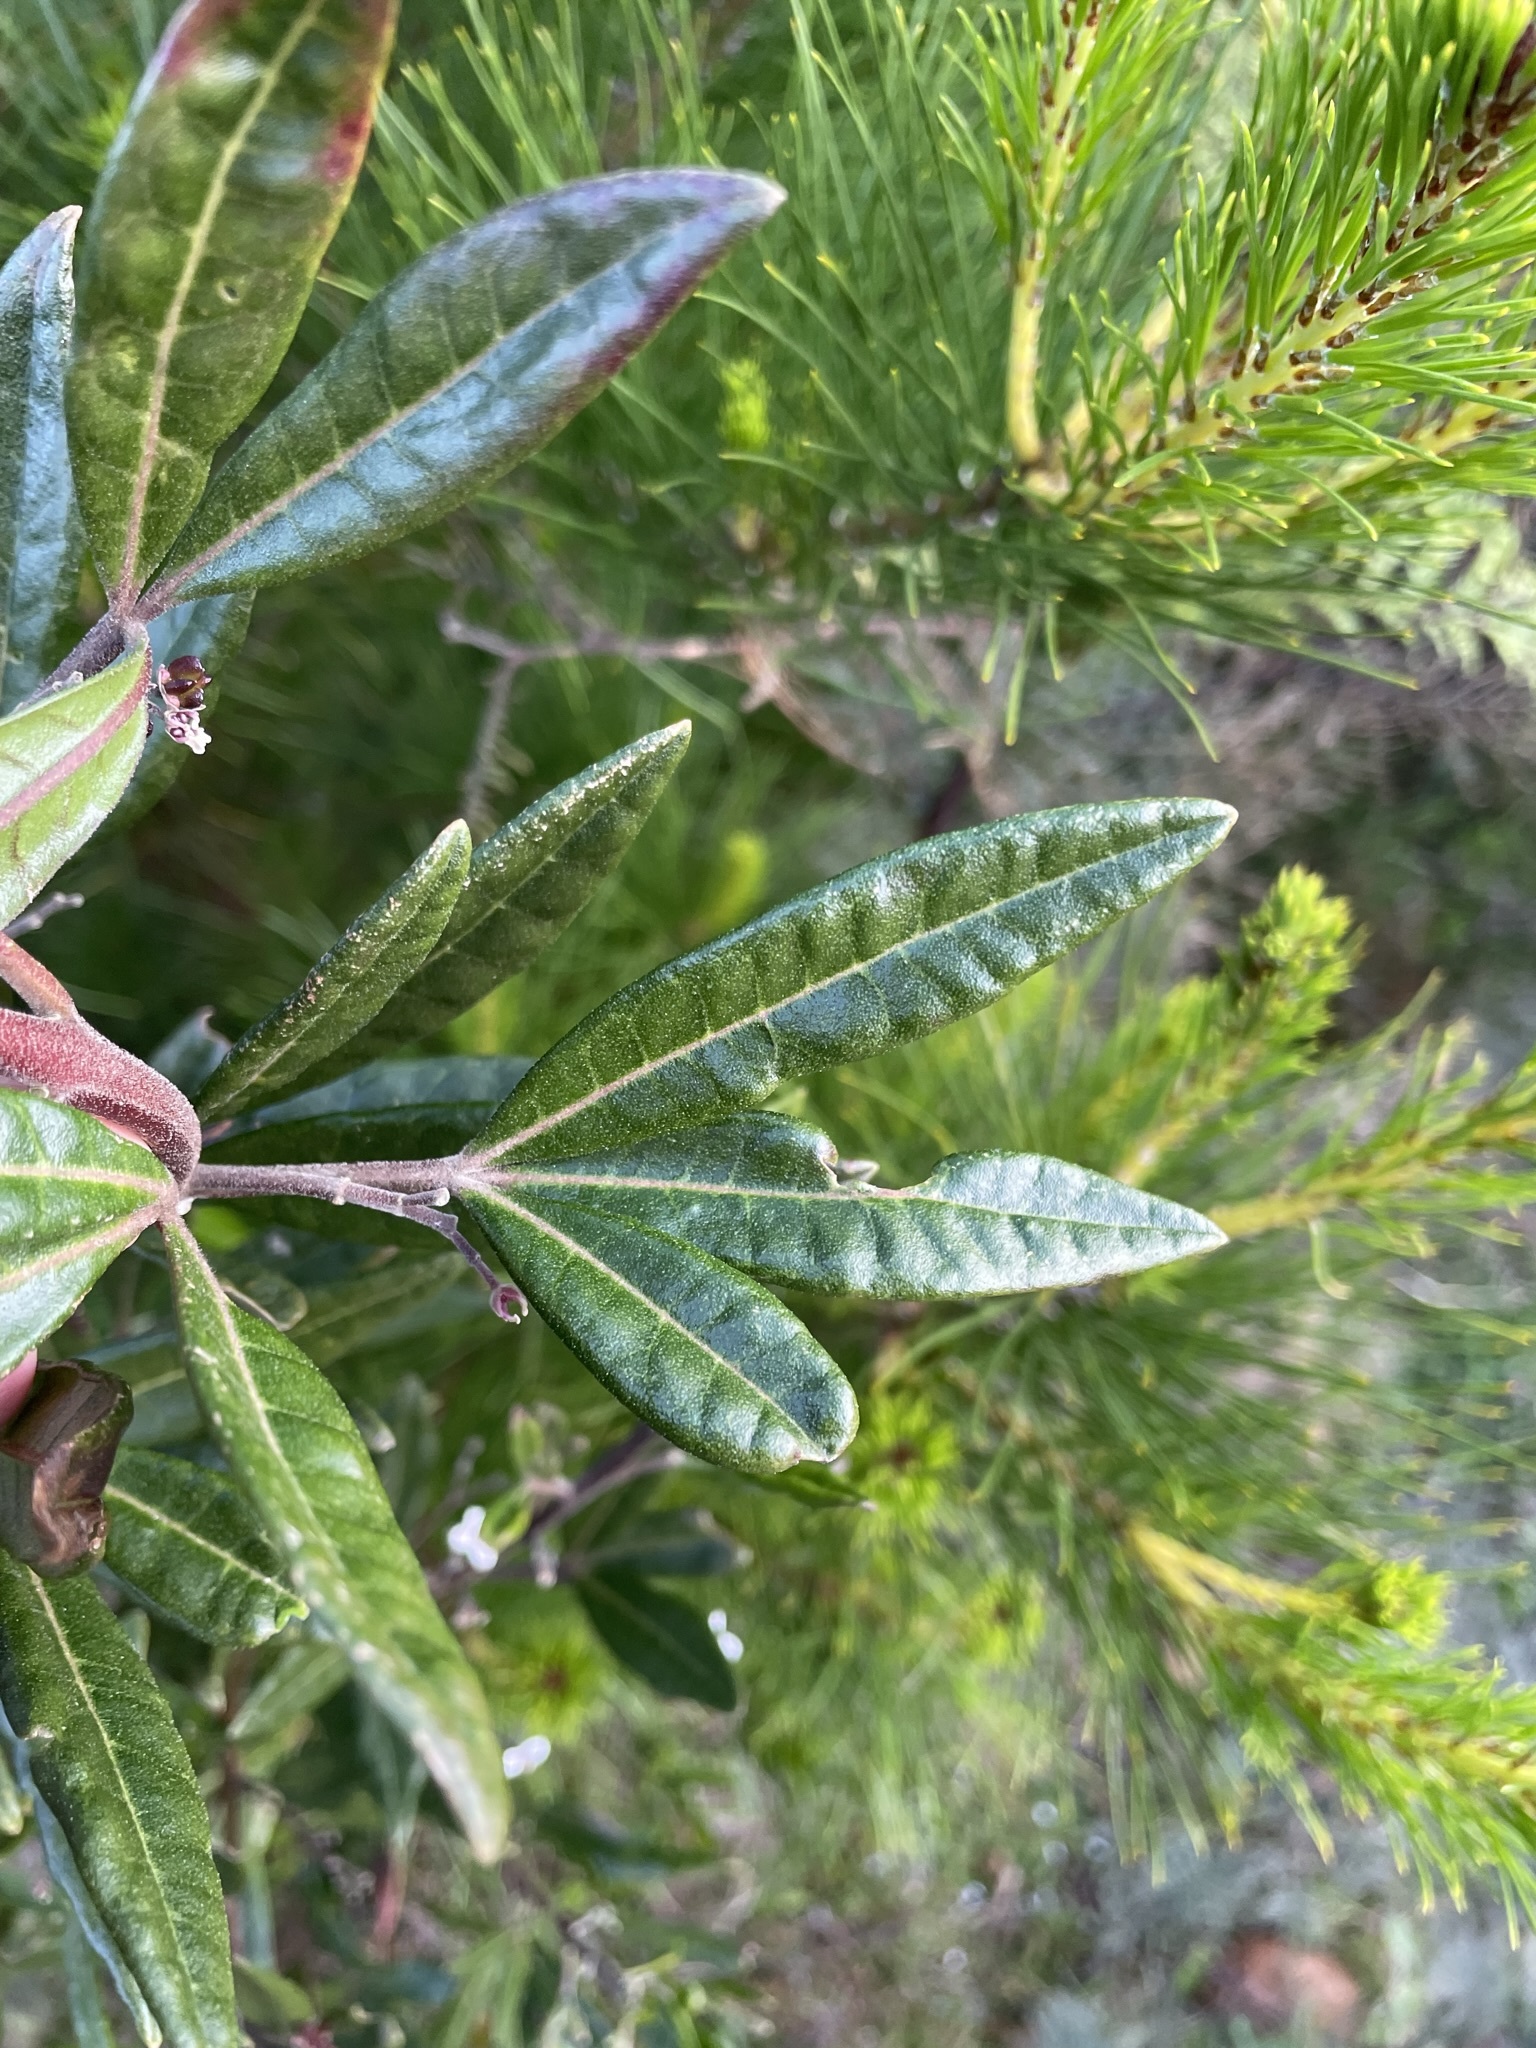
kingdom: Plantae
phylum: Tracheophyta
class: Magnoliopsida
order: Sapindales
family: Rutaceae
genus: Zieria
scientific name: Zieria arborescens
